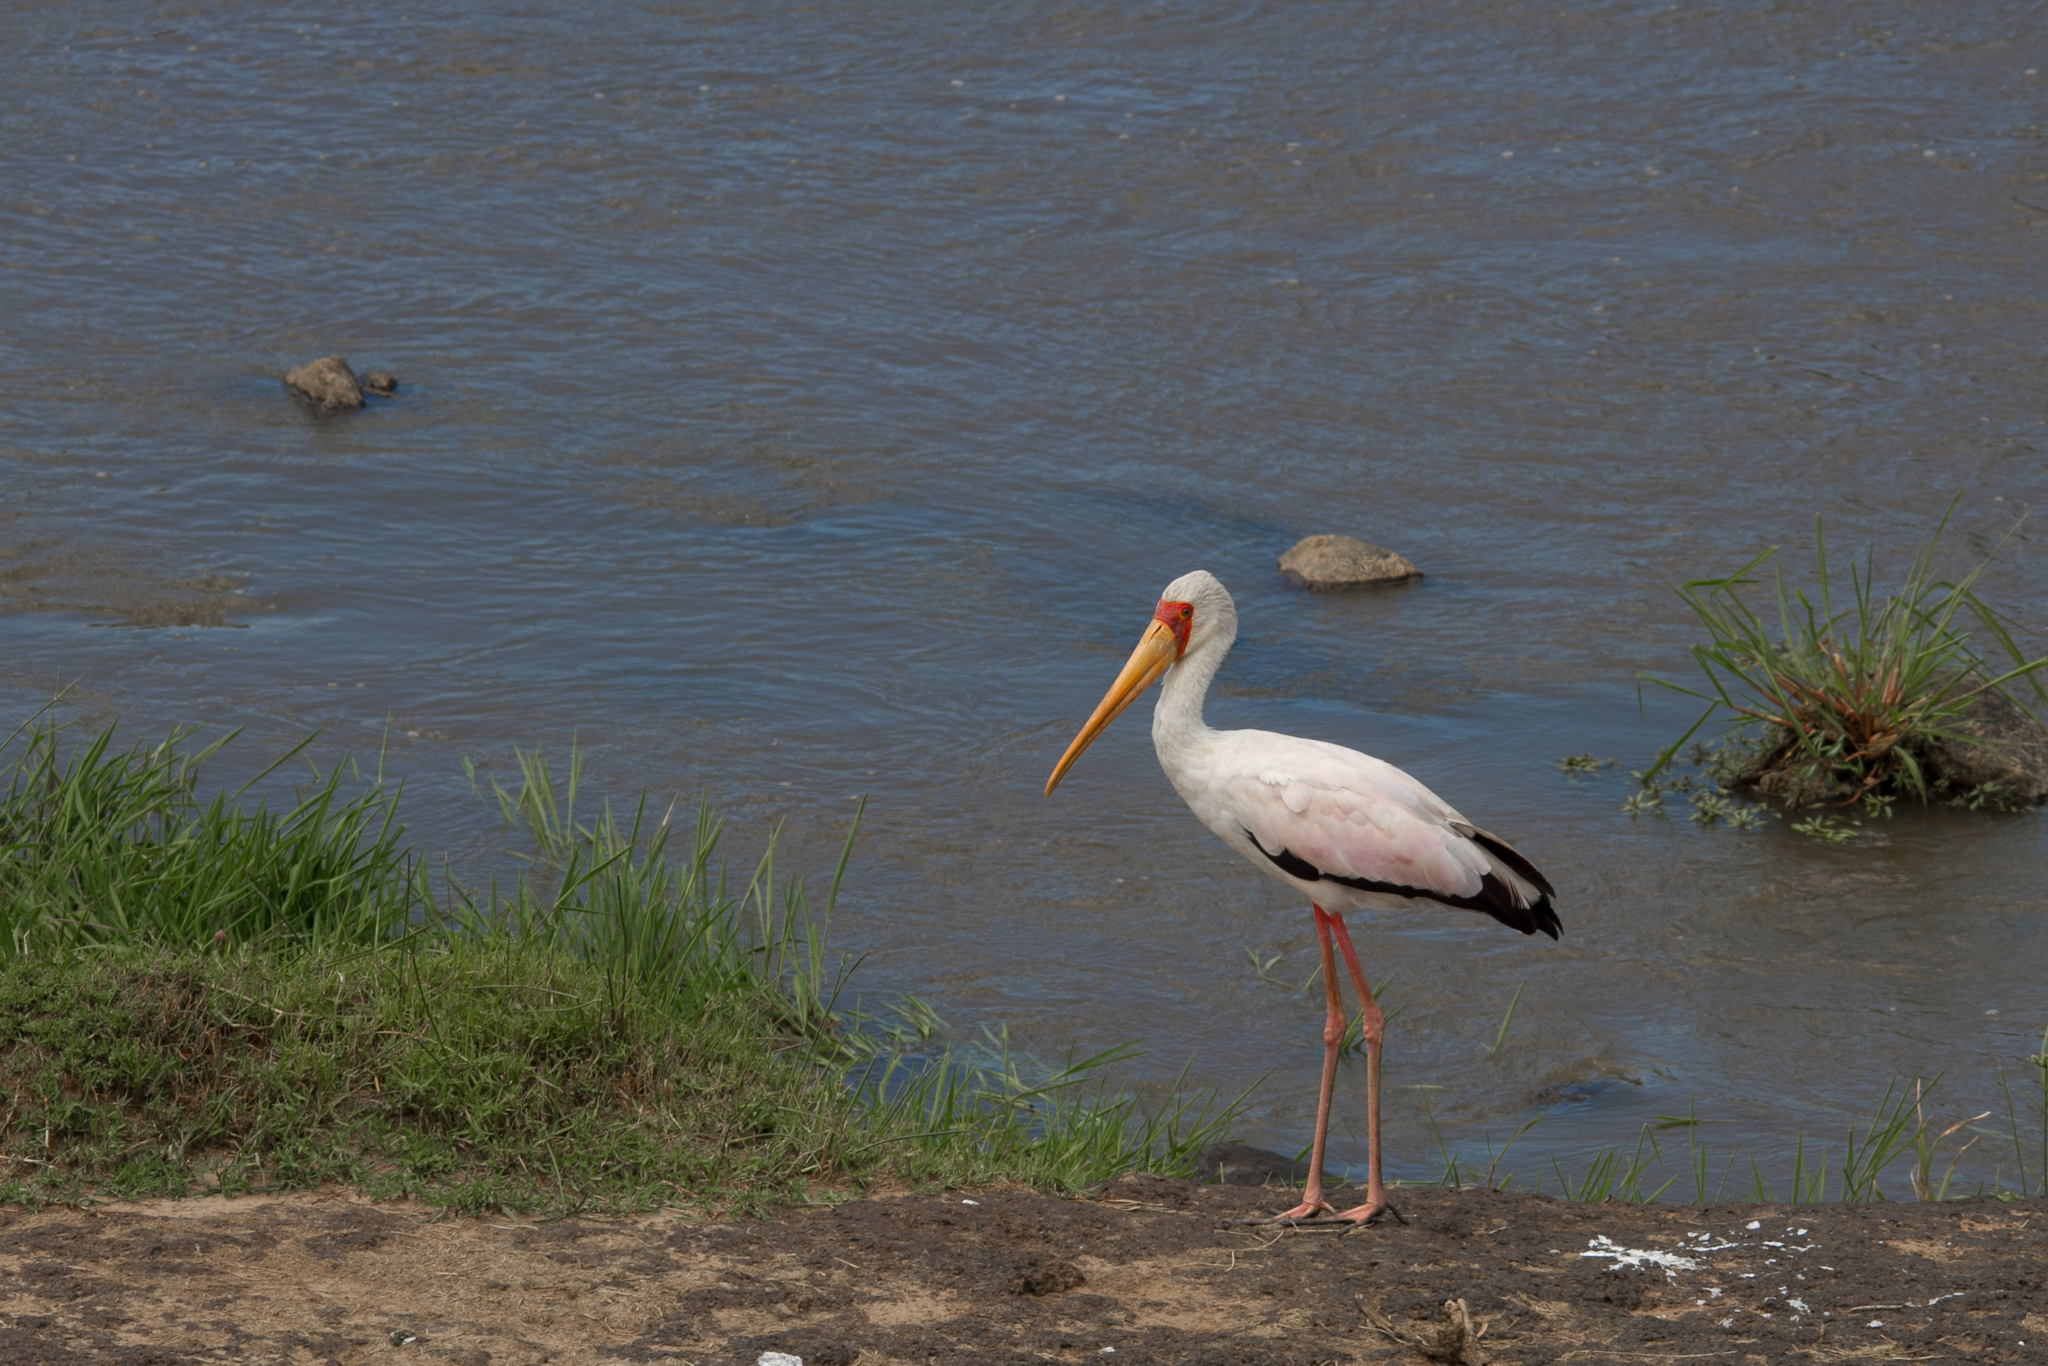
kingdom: Animalia
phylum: Chordata
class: Aves
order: Ciconiiformes
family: Ciconiidae
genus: Mycteria
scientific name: Mycteria ibis
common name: Yellow-billed stork
